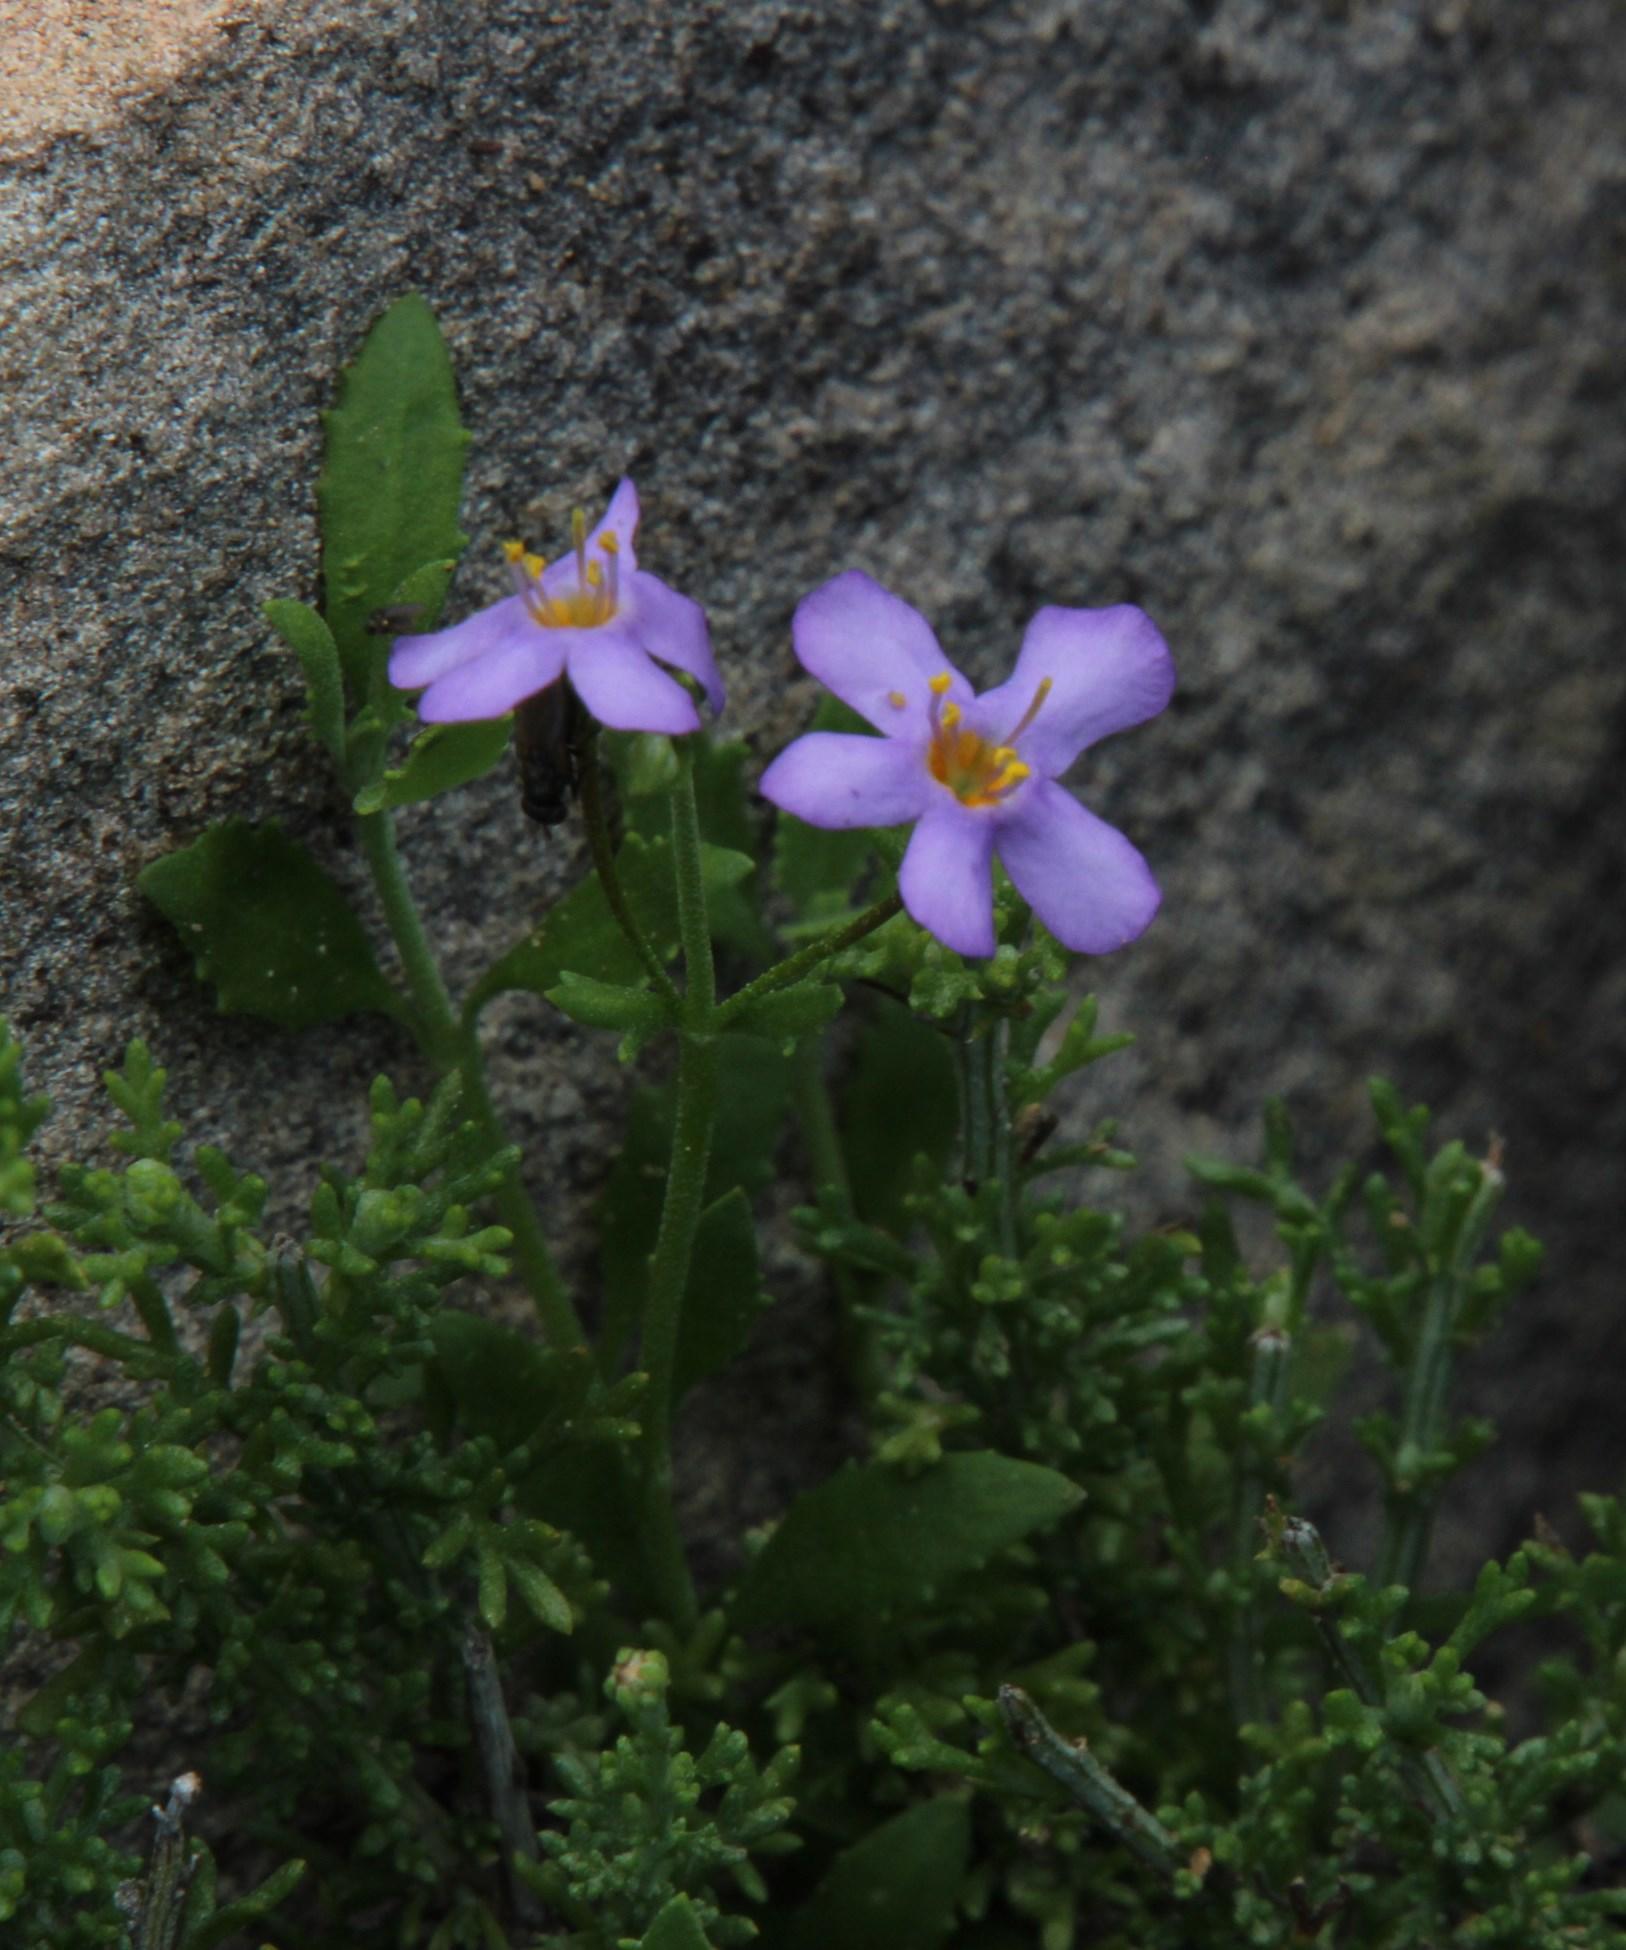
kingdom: Plantae
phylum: Tracheophyta
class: Magnoliopsida
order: Lamiales
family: Scrophulariaceae
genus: Chaenostoma
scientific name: Chaenostoma halimifolium
